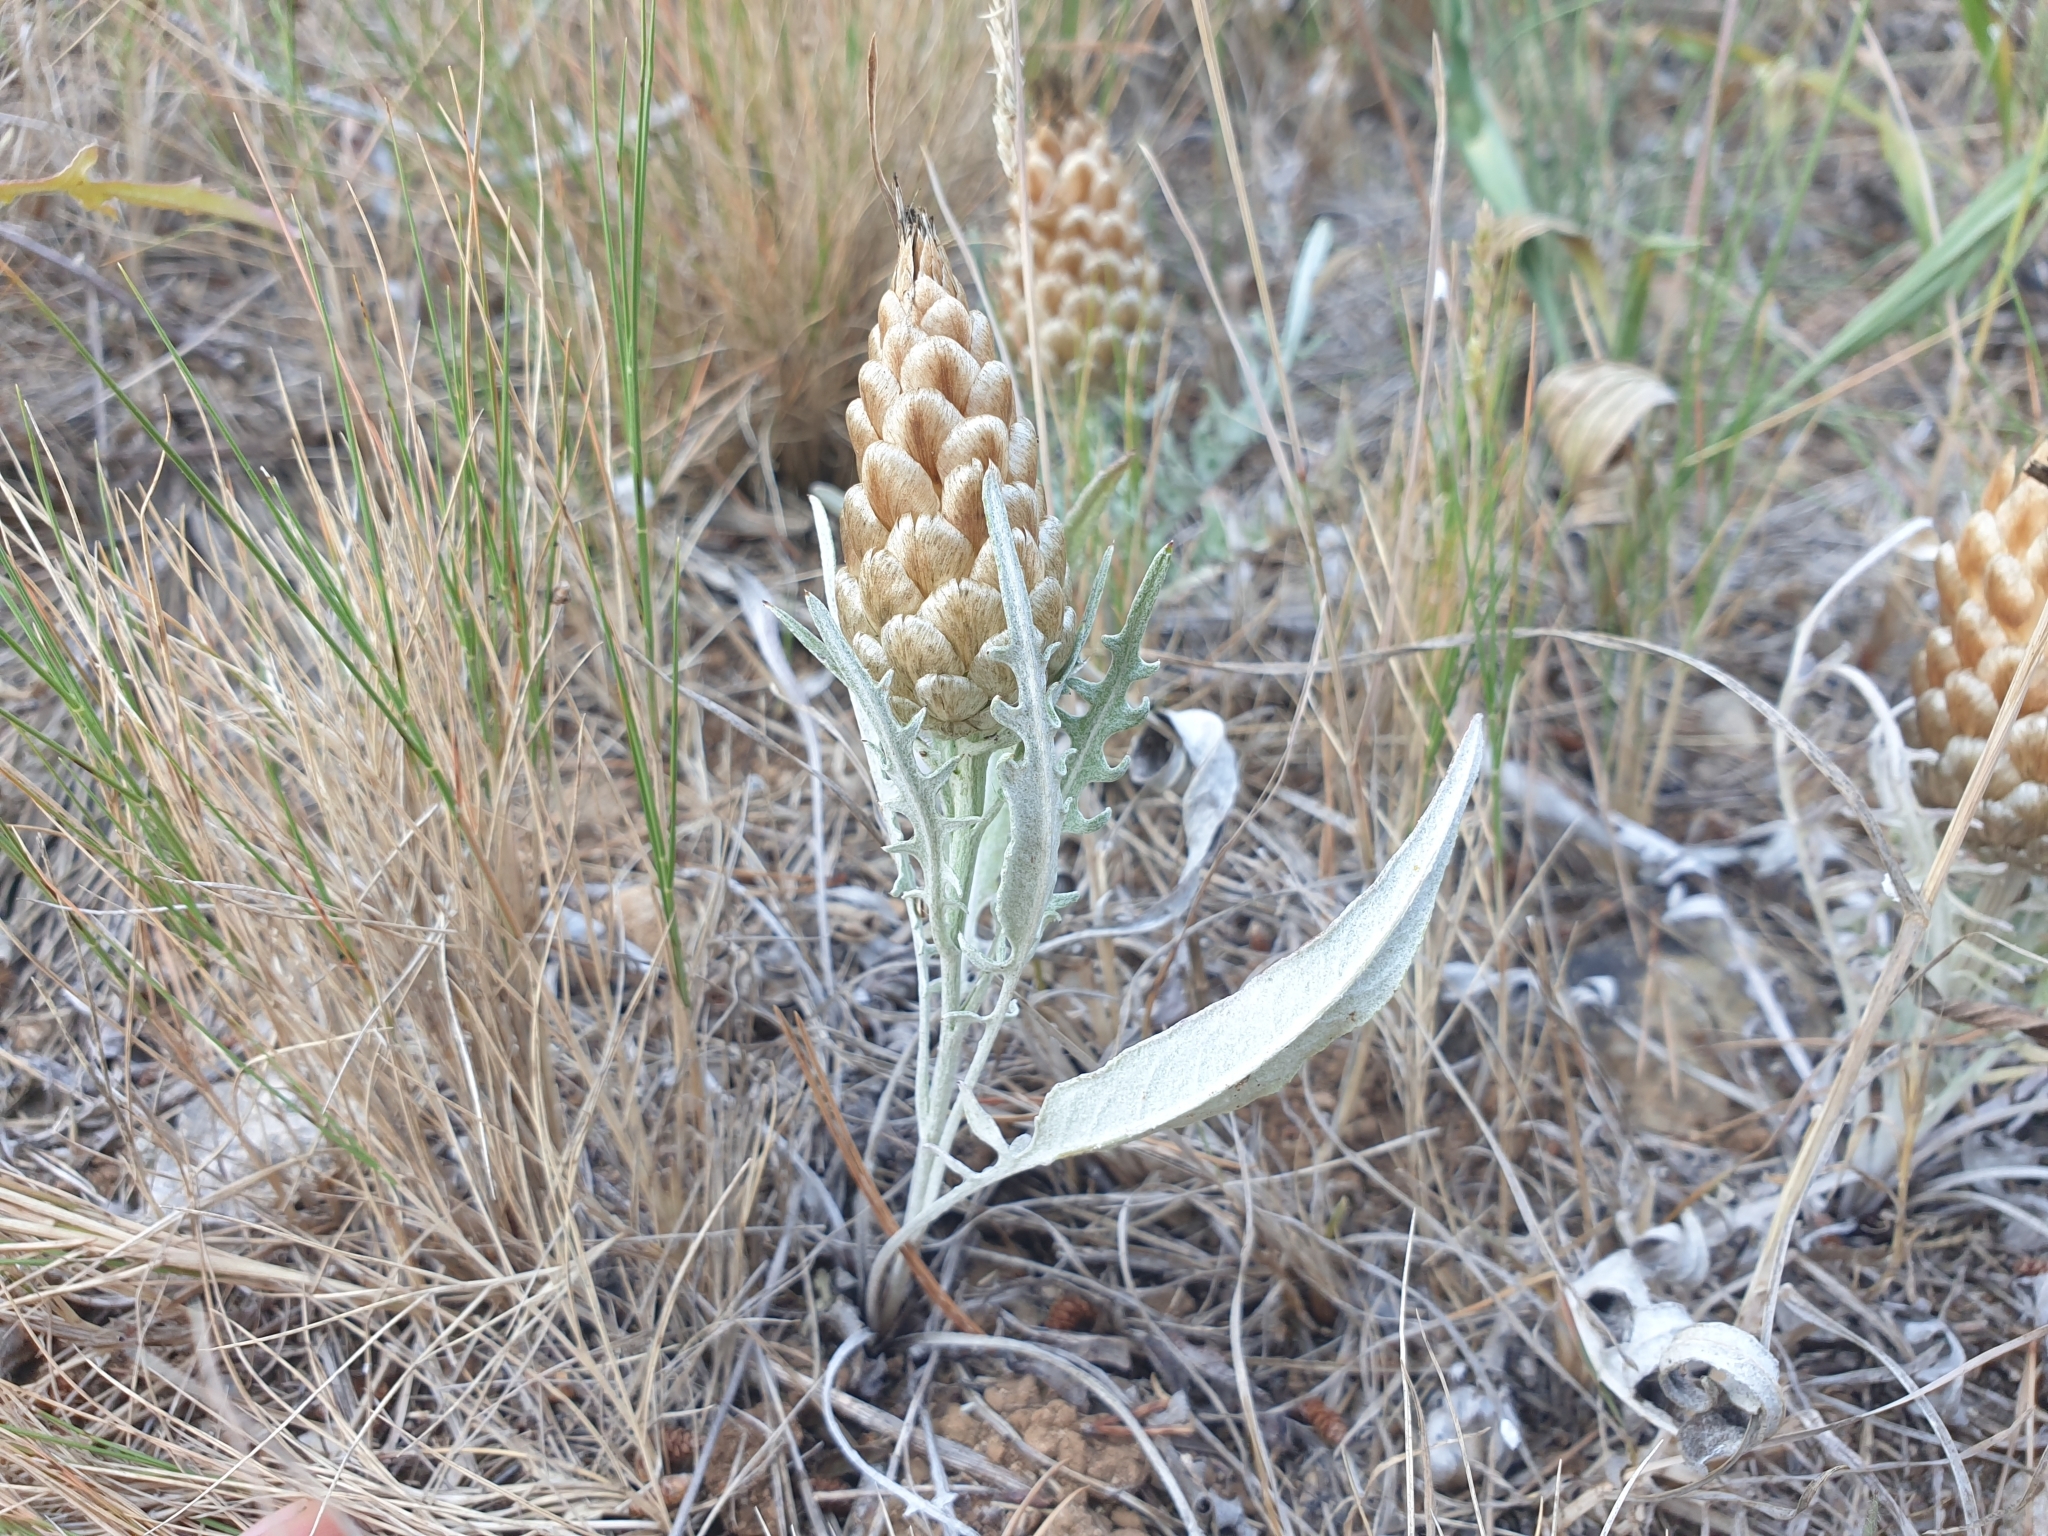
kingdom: Plantae
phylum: Tracheophyta
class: Magnoliopsida
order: Asterales
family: Asteraceae
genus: Leuzea
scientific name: Leuzea conifera
